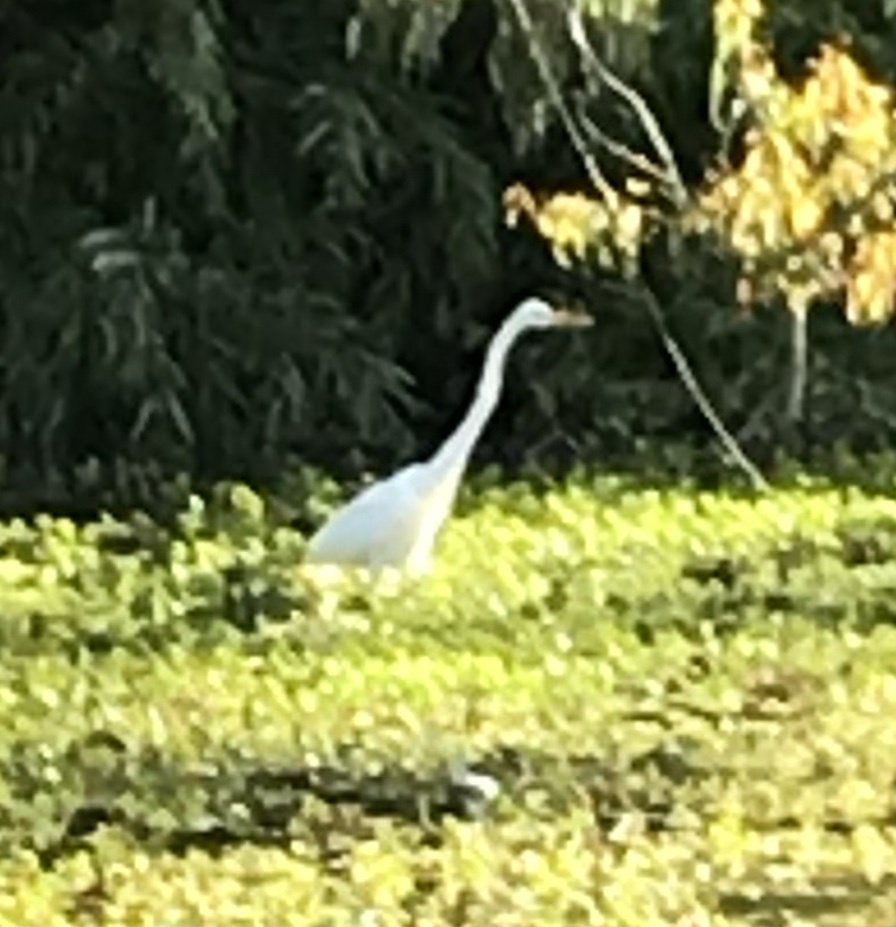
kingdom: Animalia
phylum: Chordata
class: Aves
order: Pelecaniformes
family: Ardeidae
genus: Ardea
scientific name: Ardea alba
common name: Great egret
